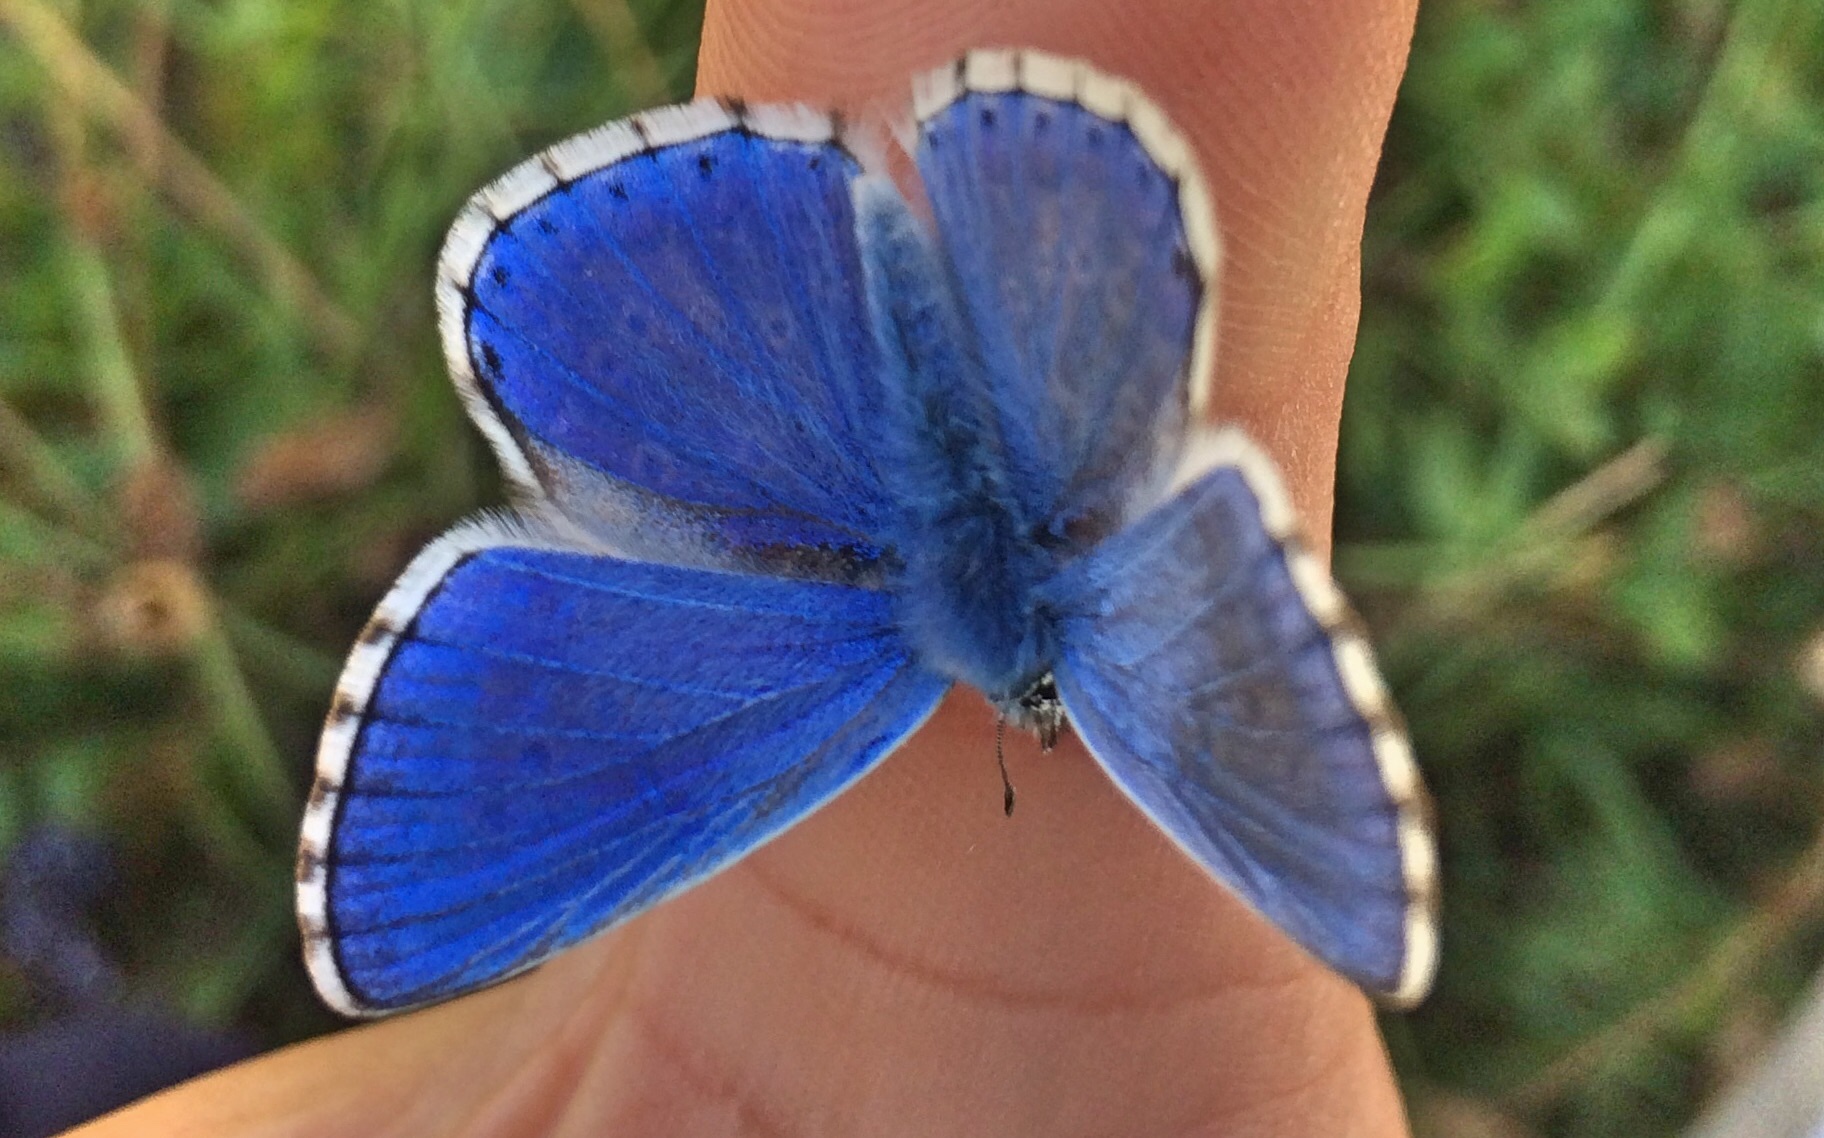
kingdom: Animalia
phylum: Arthropoda
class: Insecta
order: Lepidoptera
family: Lycaenidae
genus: Lysandra
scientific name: Lysandra bellargus
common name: Adonis blue
